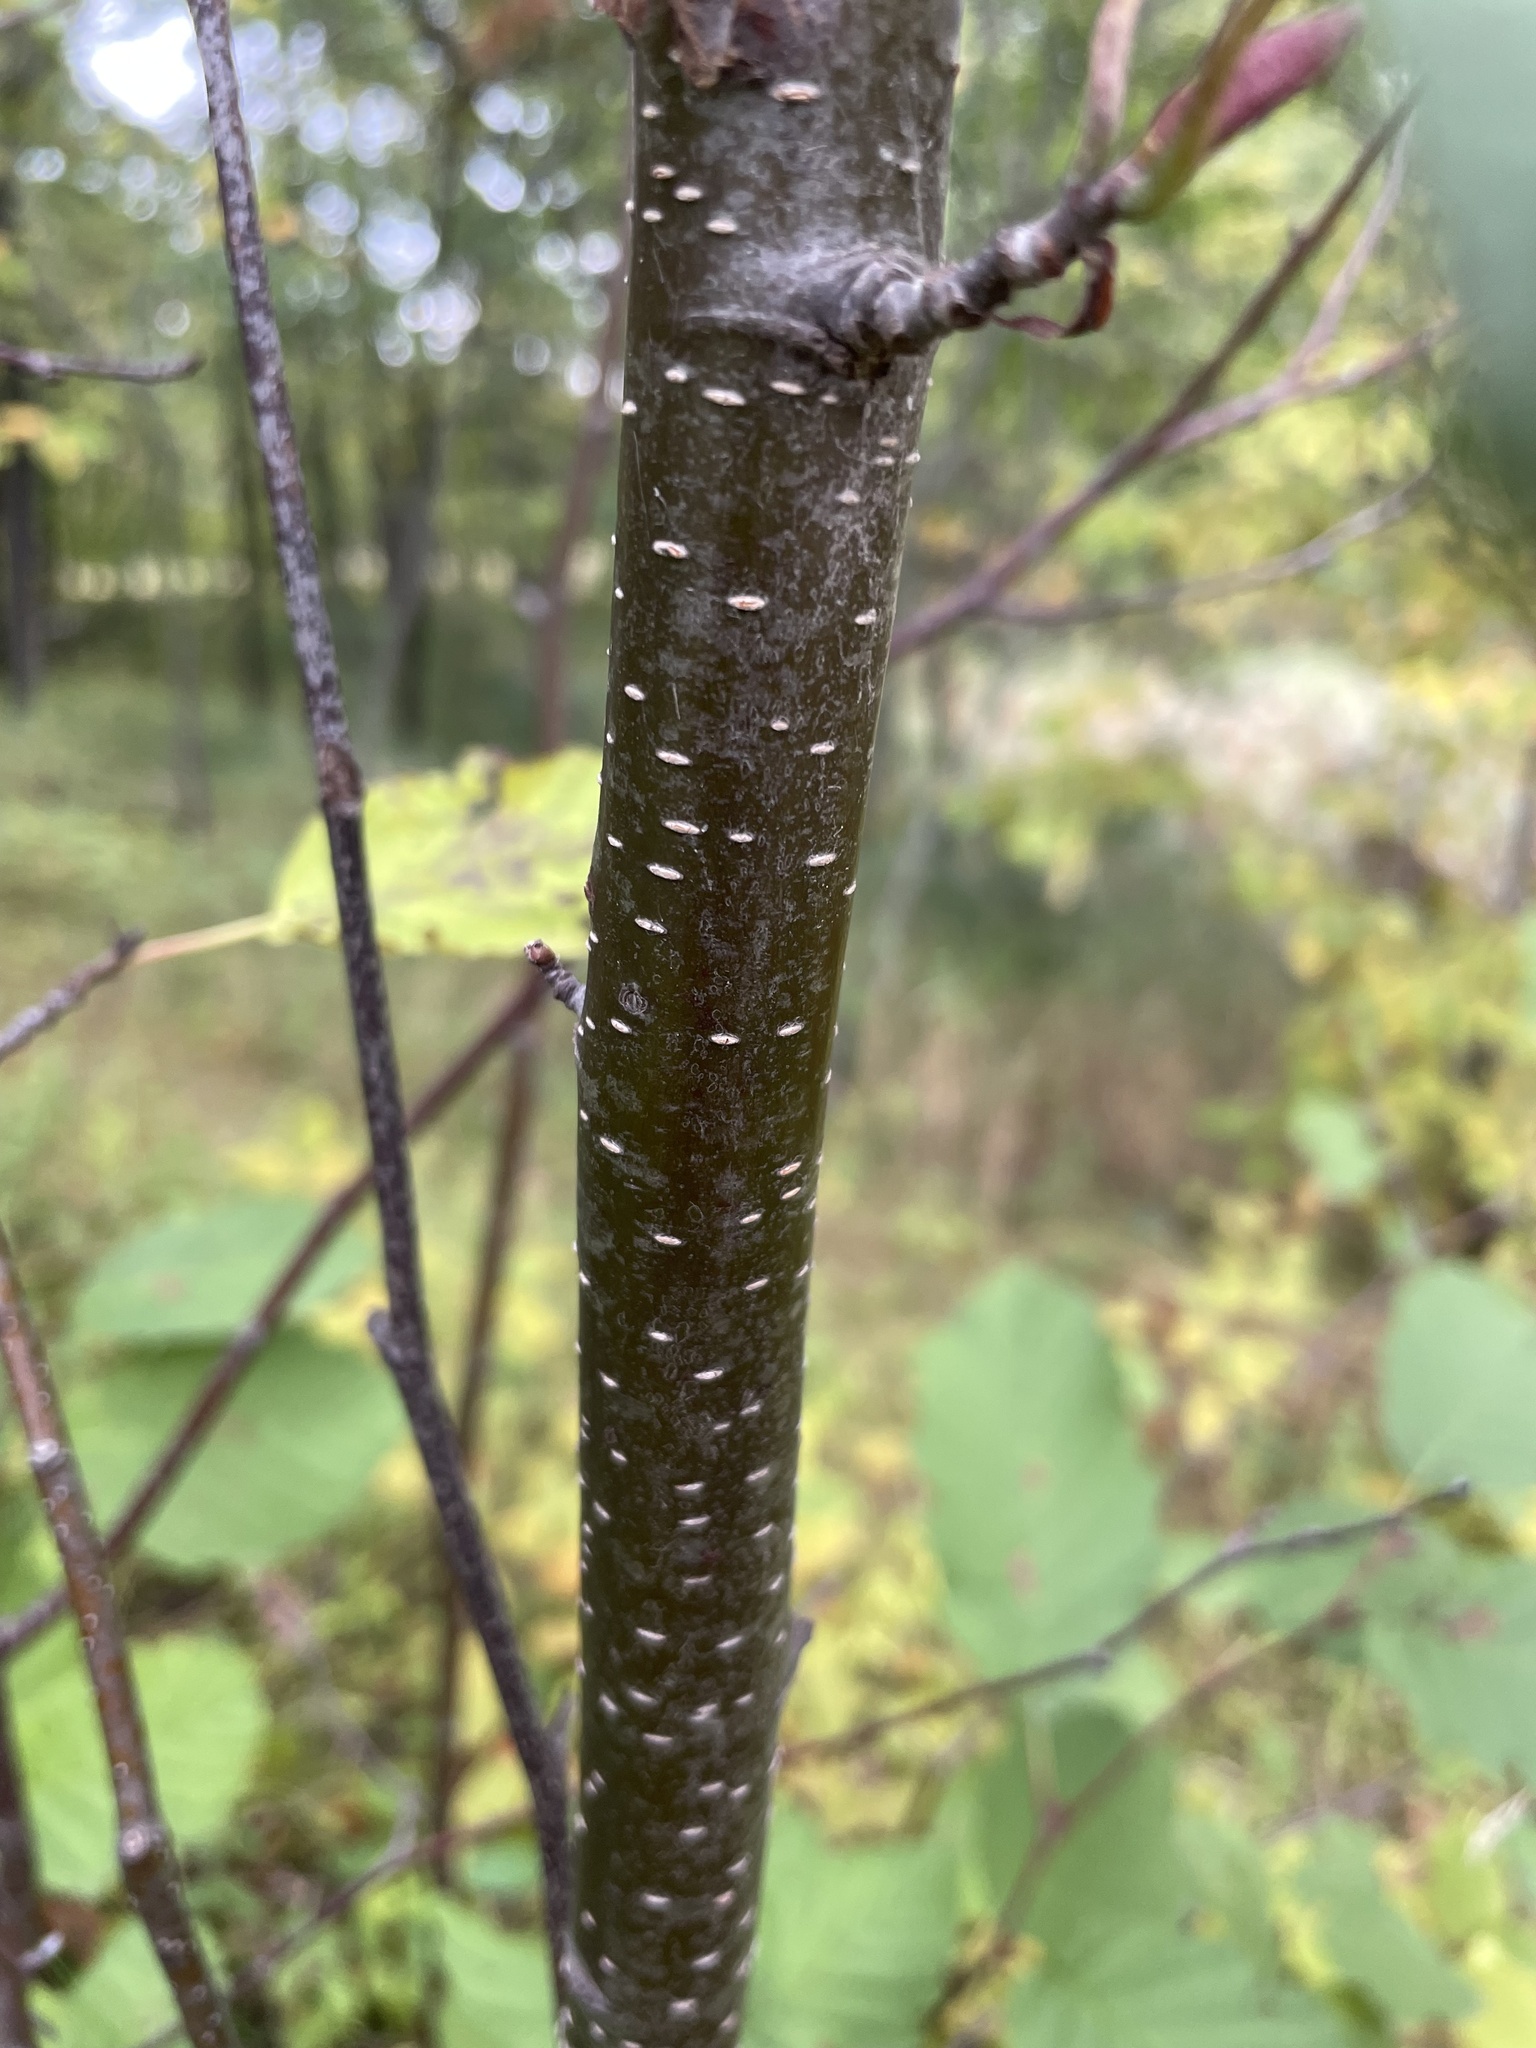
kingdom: Plantae
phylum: Tracheophyta
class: Magnoliopsida
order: Fagales
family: Betulaceae
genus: Alnus
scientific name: Alnus incana
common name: Grey alder
